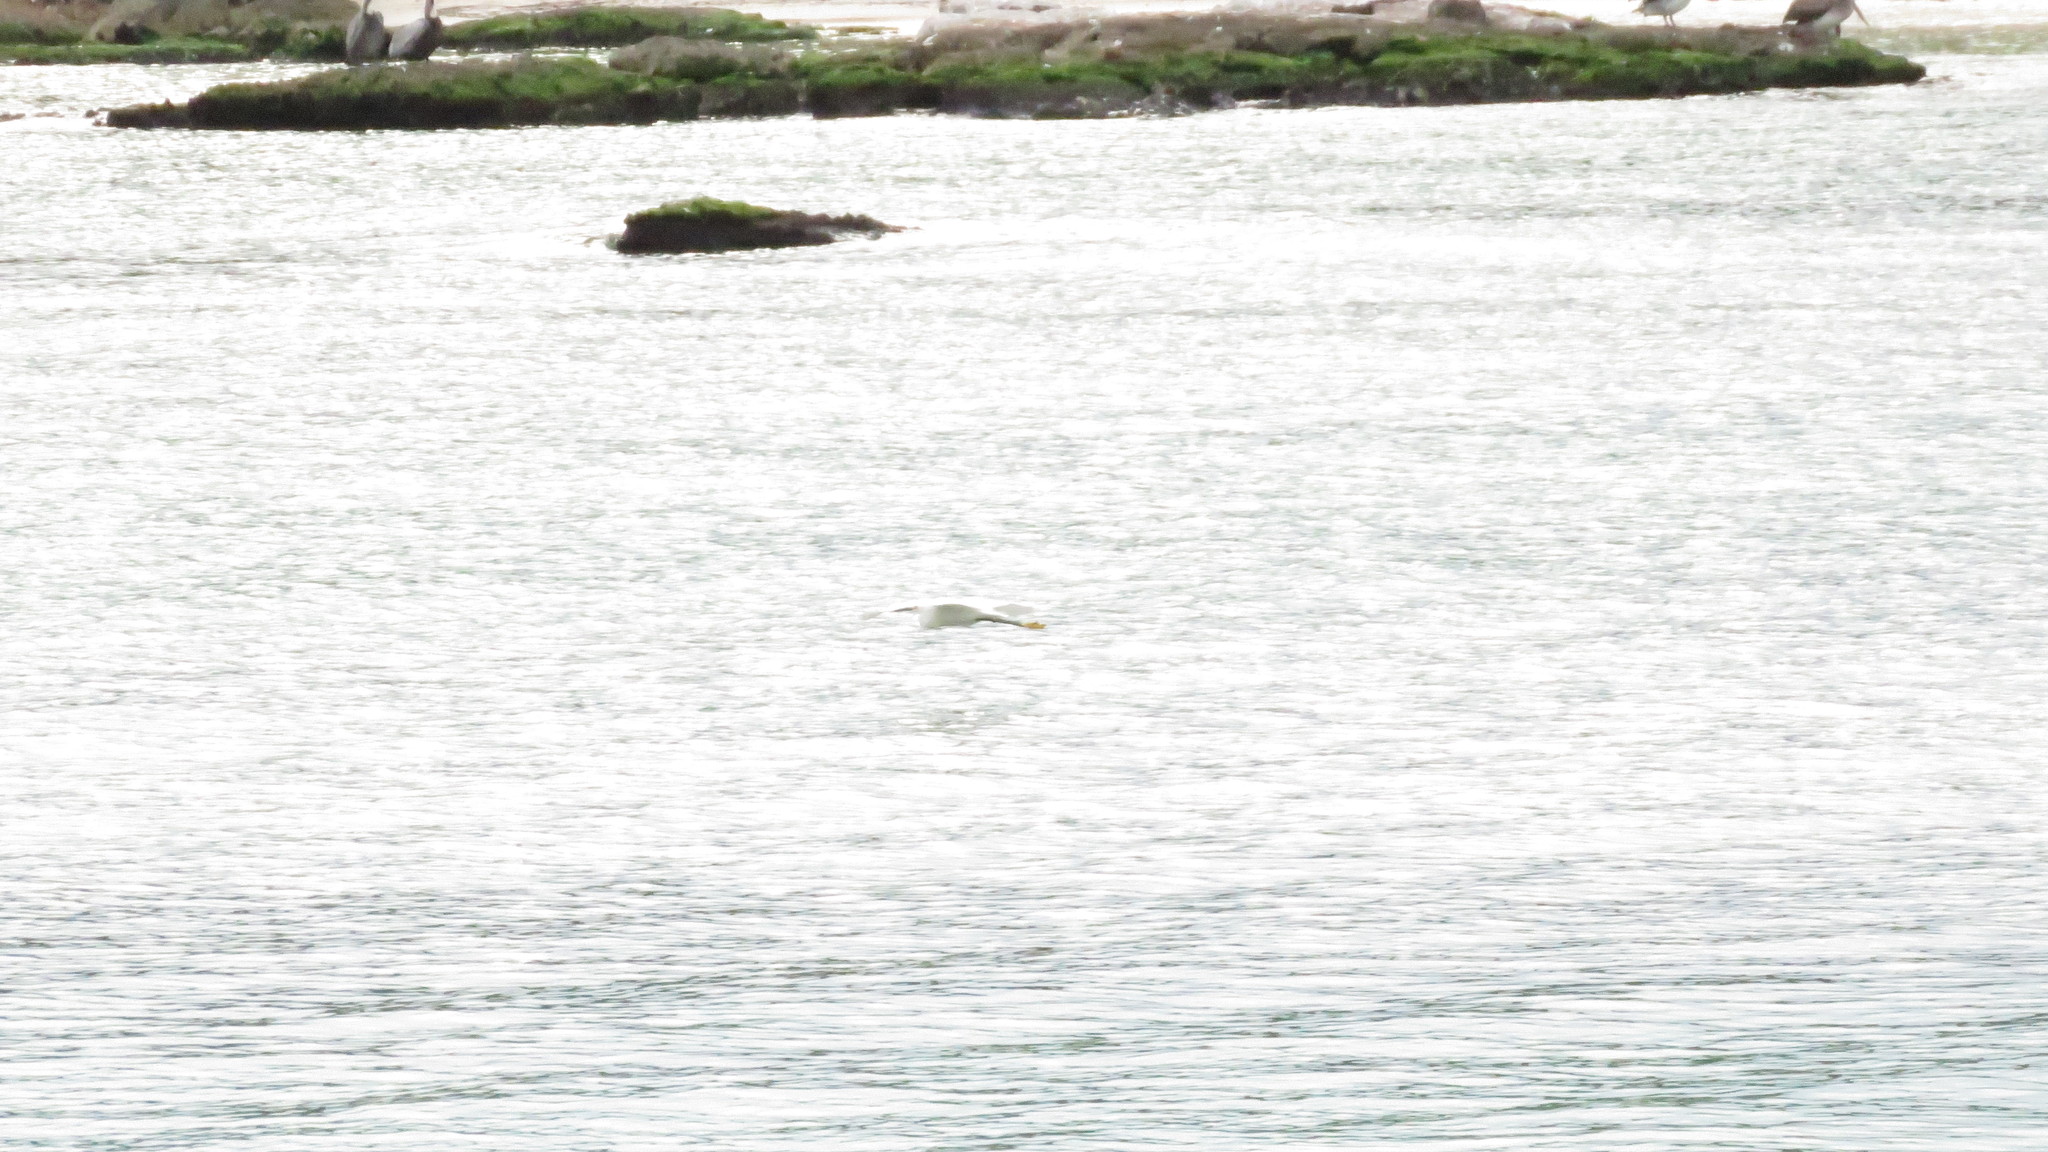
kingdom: Animalia
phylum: Chordata
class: Aves
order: Pelecaniformes
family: Ardeidae
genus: Egretta
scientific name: Egretta thula
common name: Snowy egret
